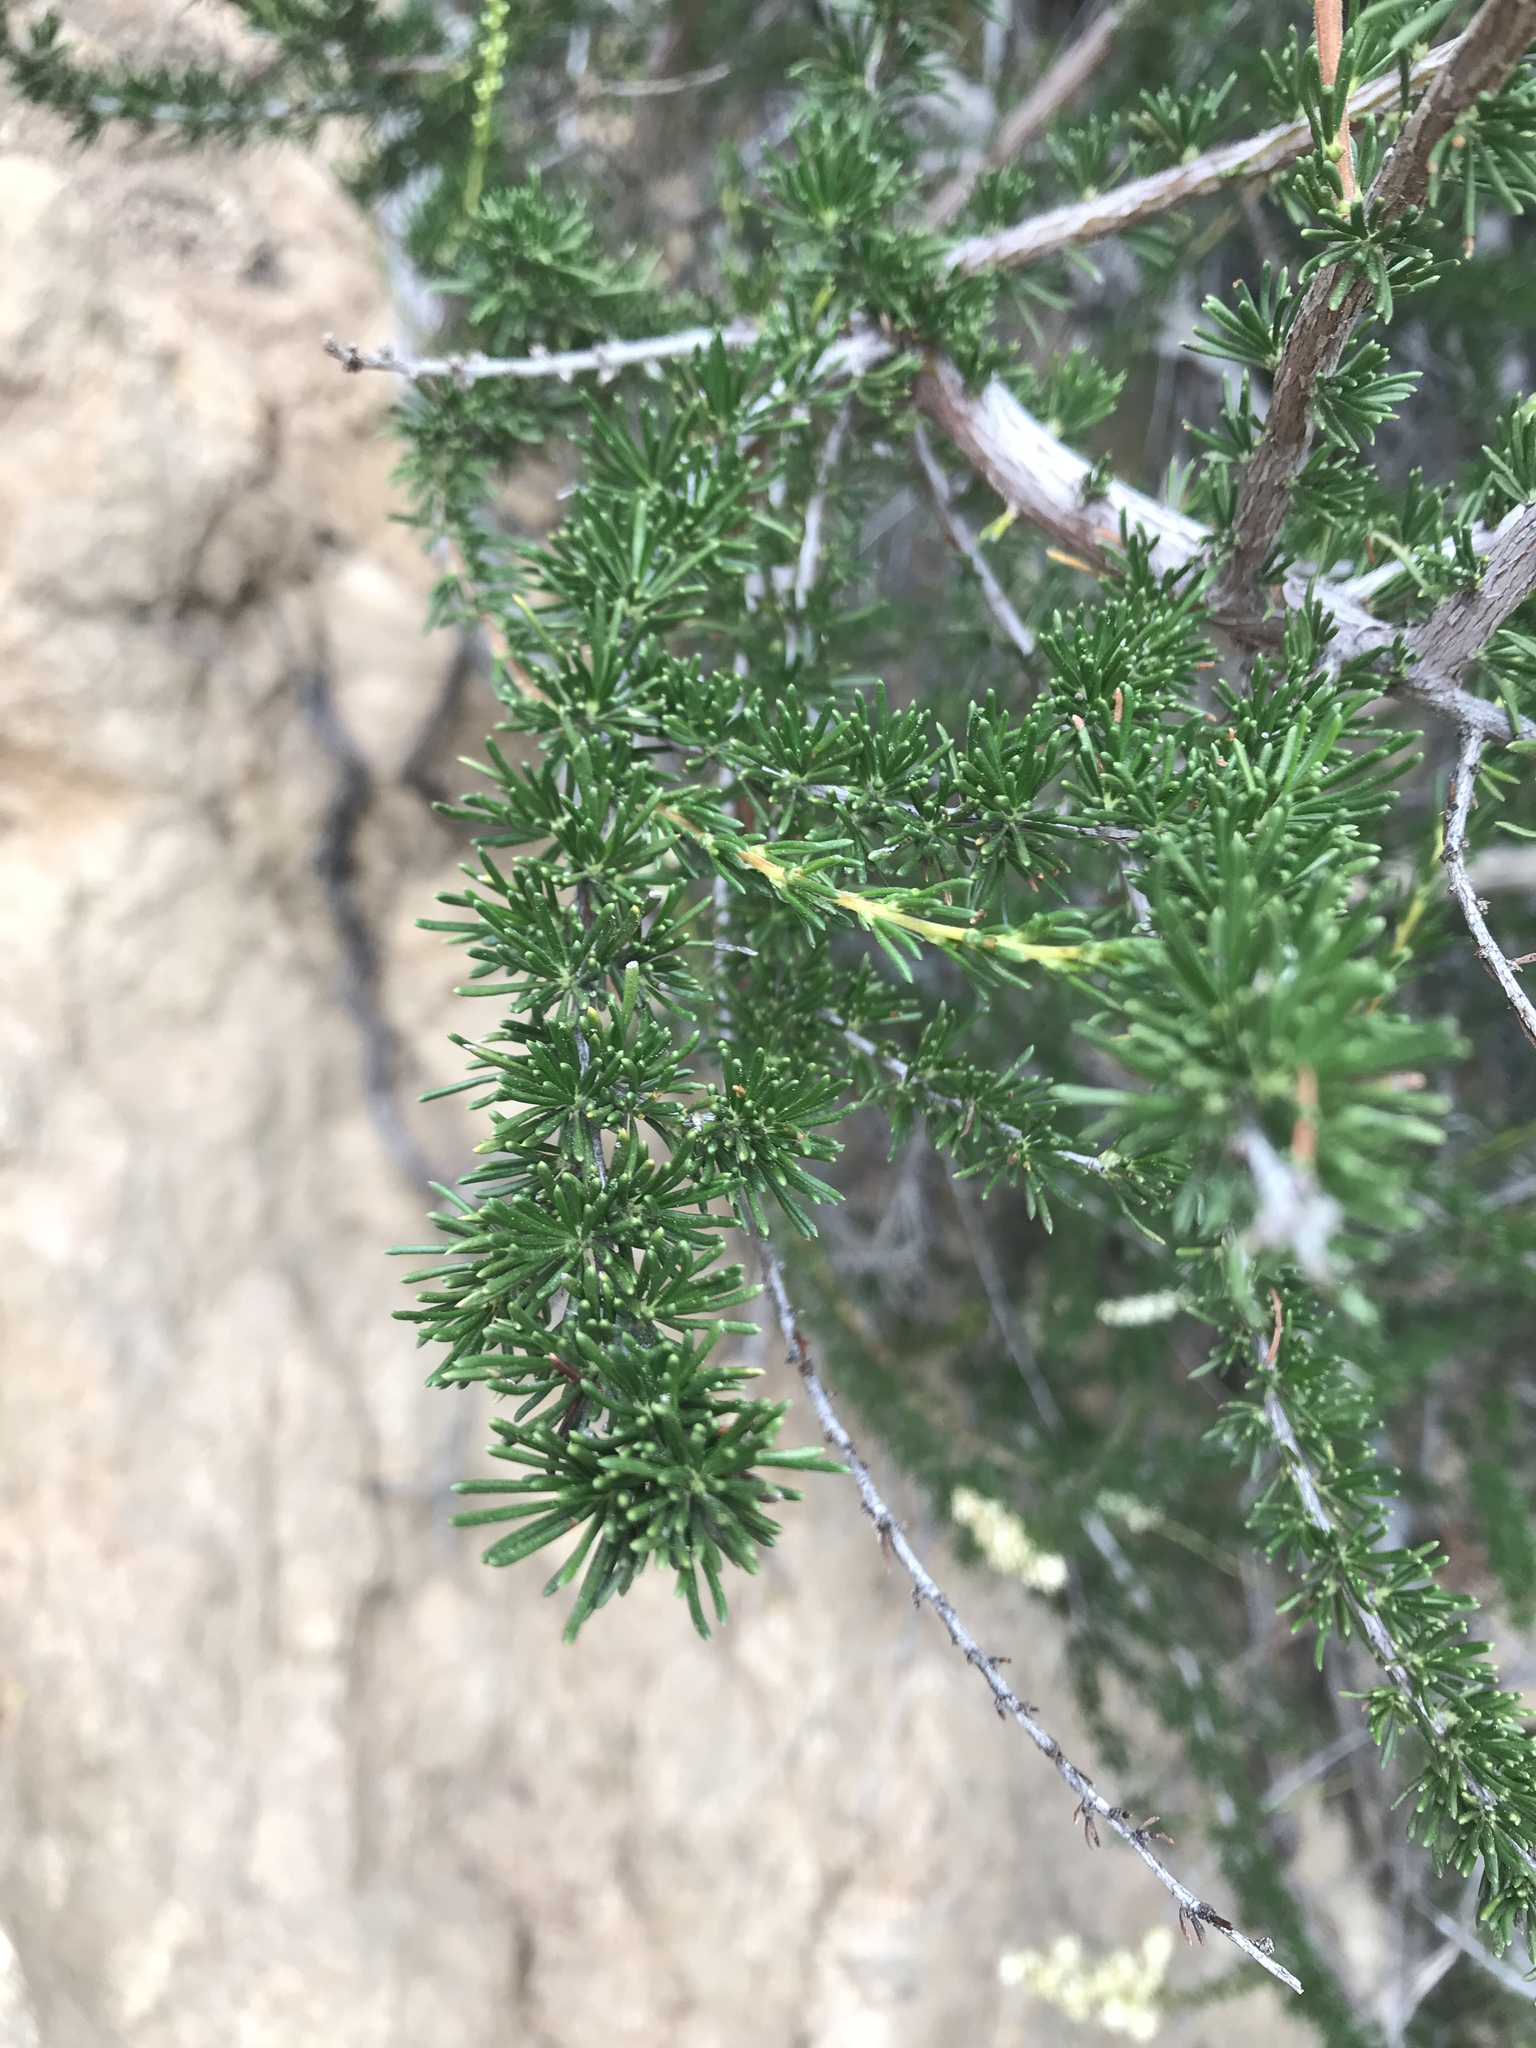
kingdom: Plantae
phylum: Tracheophyta
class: Magnoliopsida
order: Rosales
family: Rosaceae
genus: Adenostoma
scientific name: Adenostoma fasciculatum
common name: Chamise
